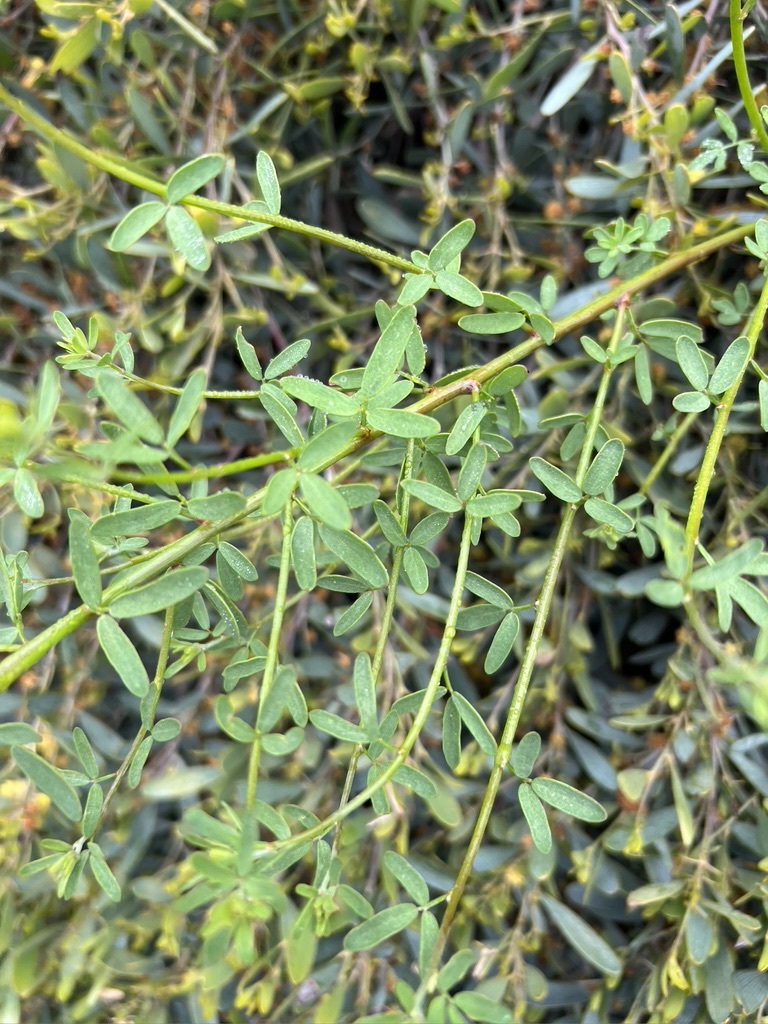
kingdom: Plantae
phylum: Tracheophyta
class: Magnoliopsida
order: Fabales
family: Fabaceae
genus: Acmispon
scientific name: Acmispon glaber
